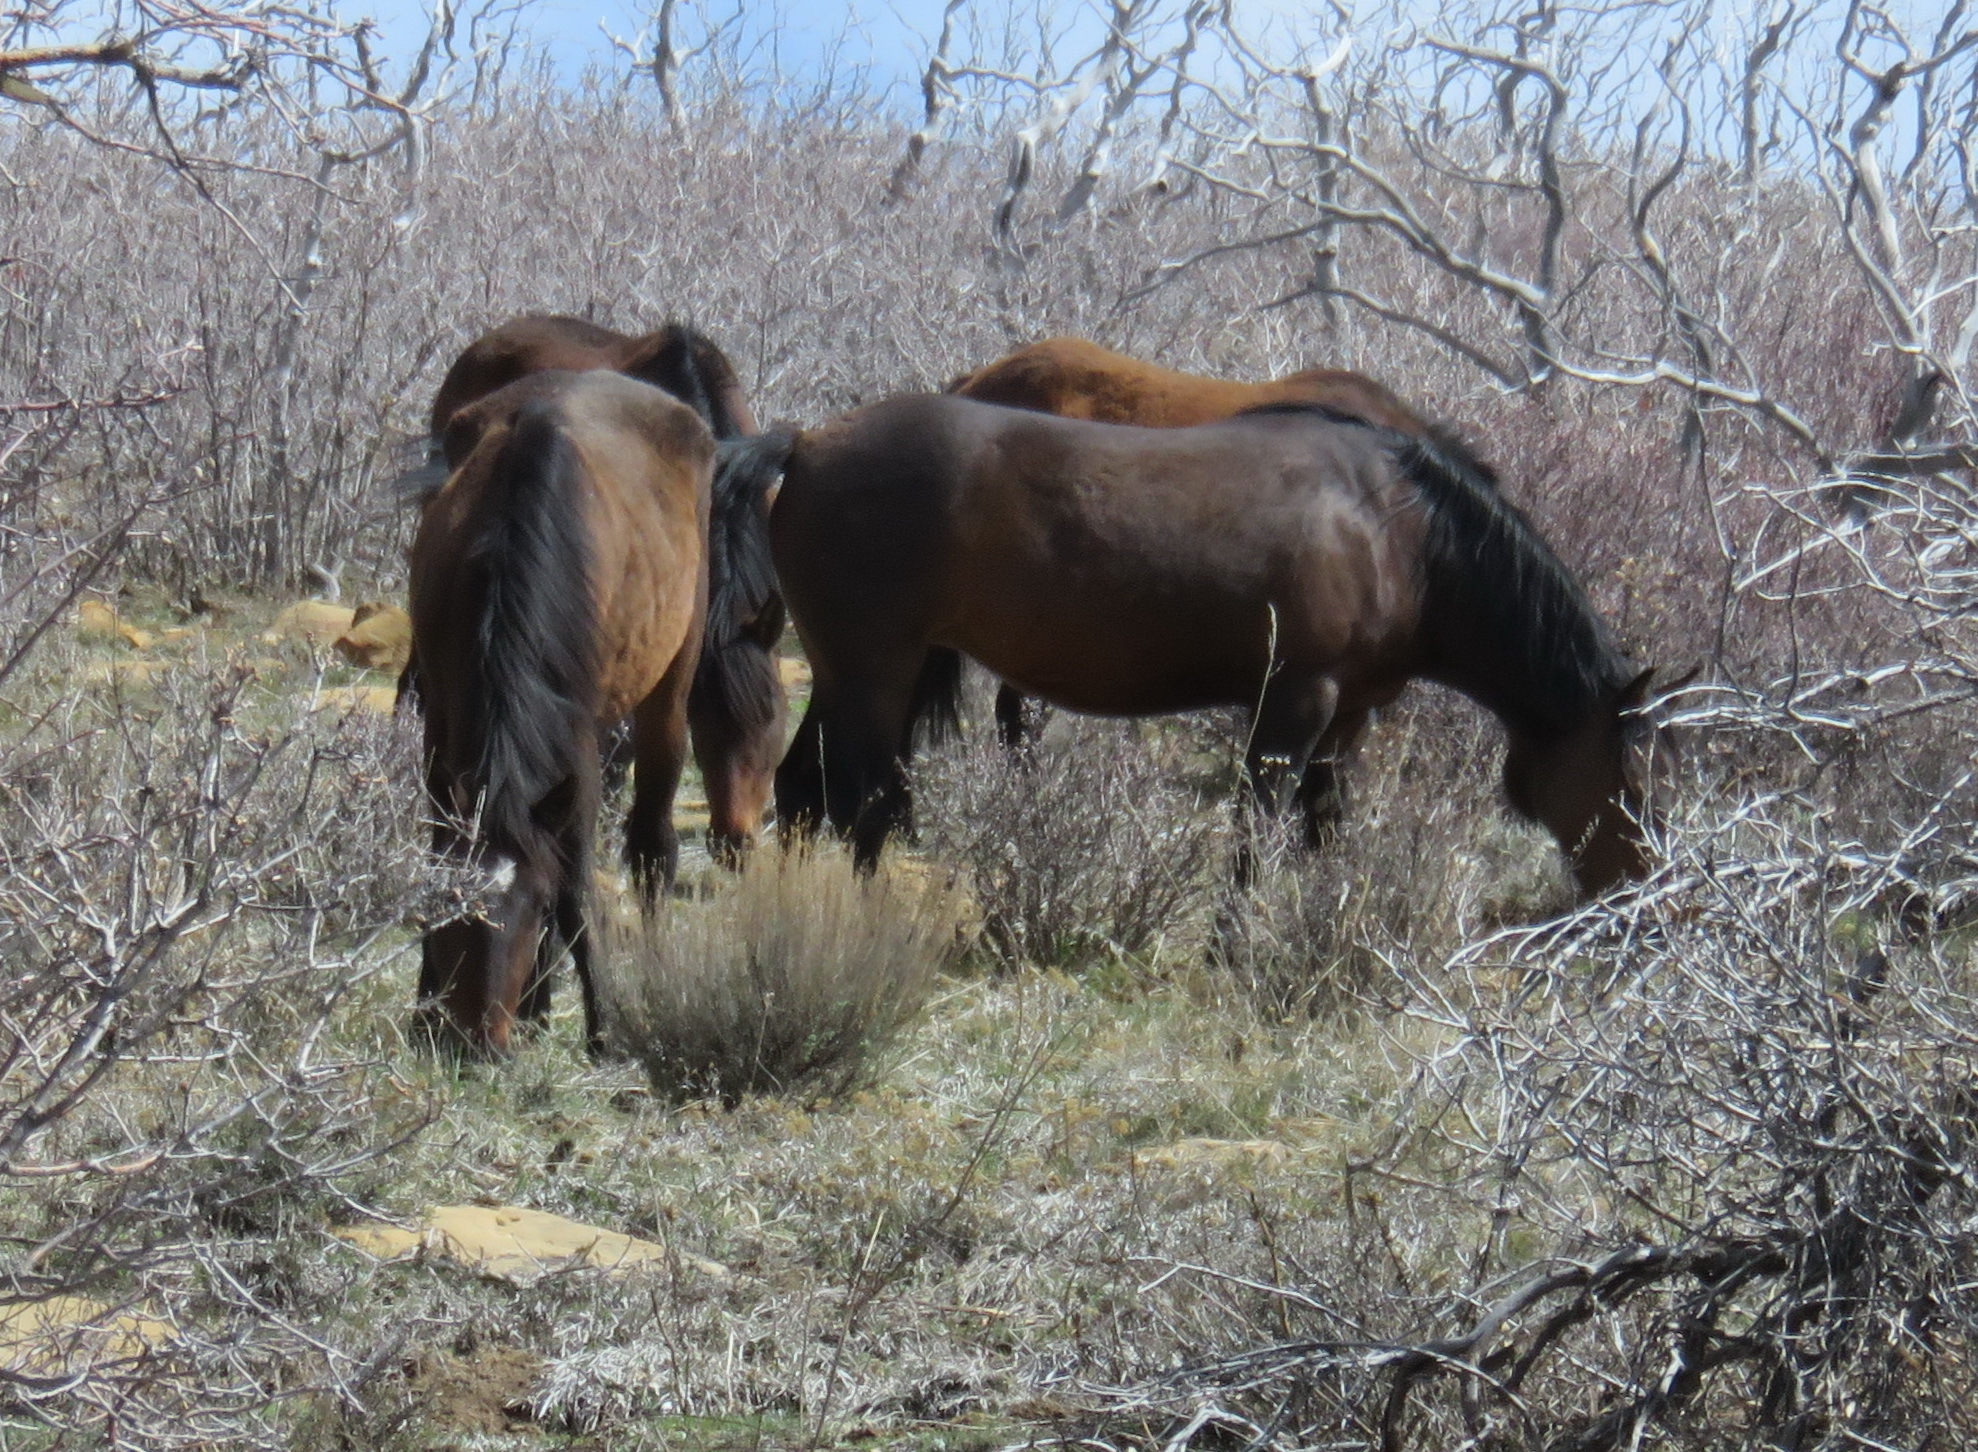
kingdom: Animalia
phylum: Chordata
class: Mammalia
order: Perissodactyla
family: Equidae
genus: Equus
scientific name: Equus caballus
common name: Horse
